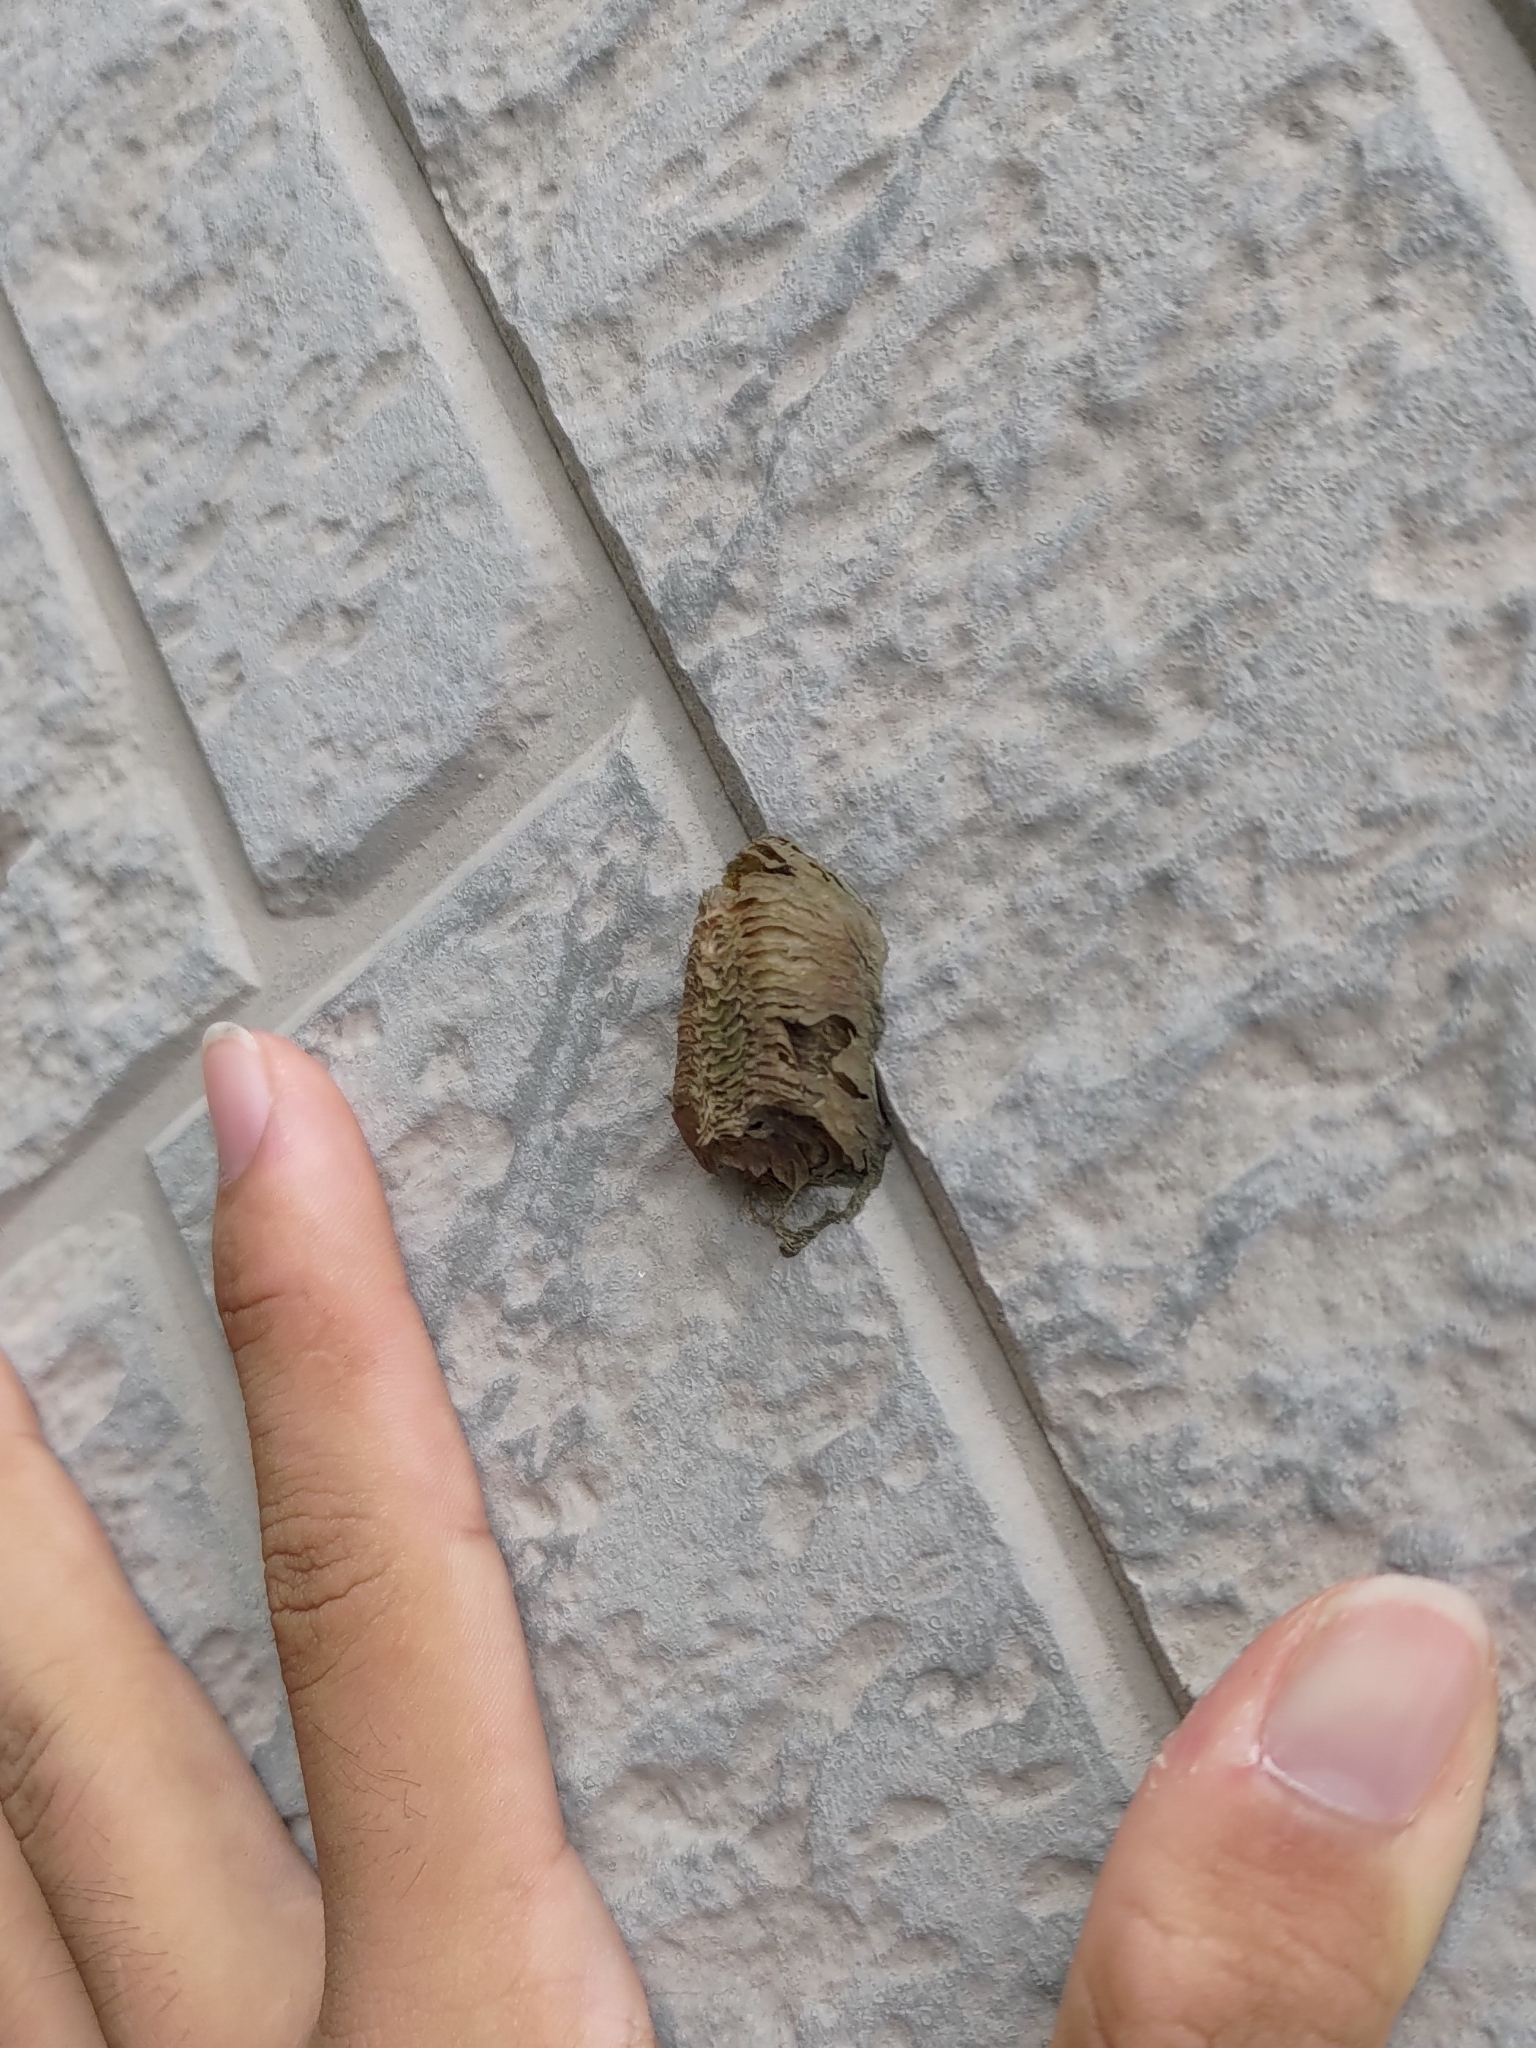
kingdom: Animalia
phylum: Arthropoda
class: Insecta
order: Mantodea
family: Mantidae
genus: Hierodula
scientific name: Hierodula patellifera
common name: Asian mantis
